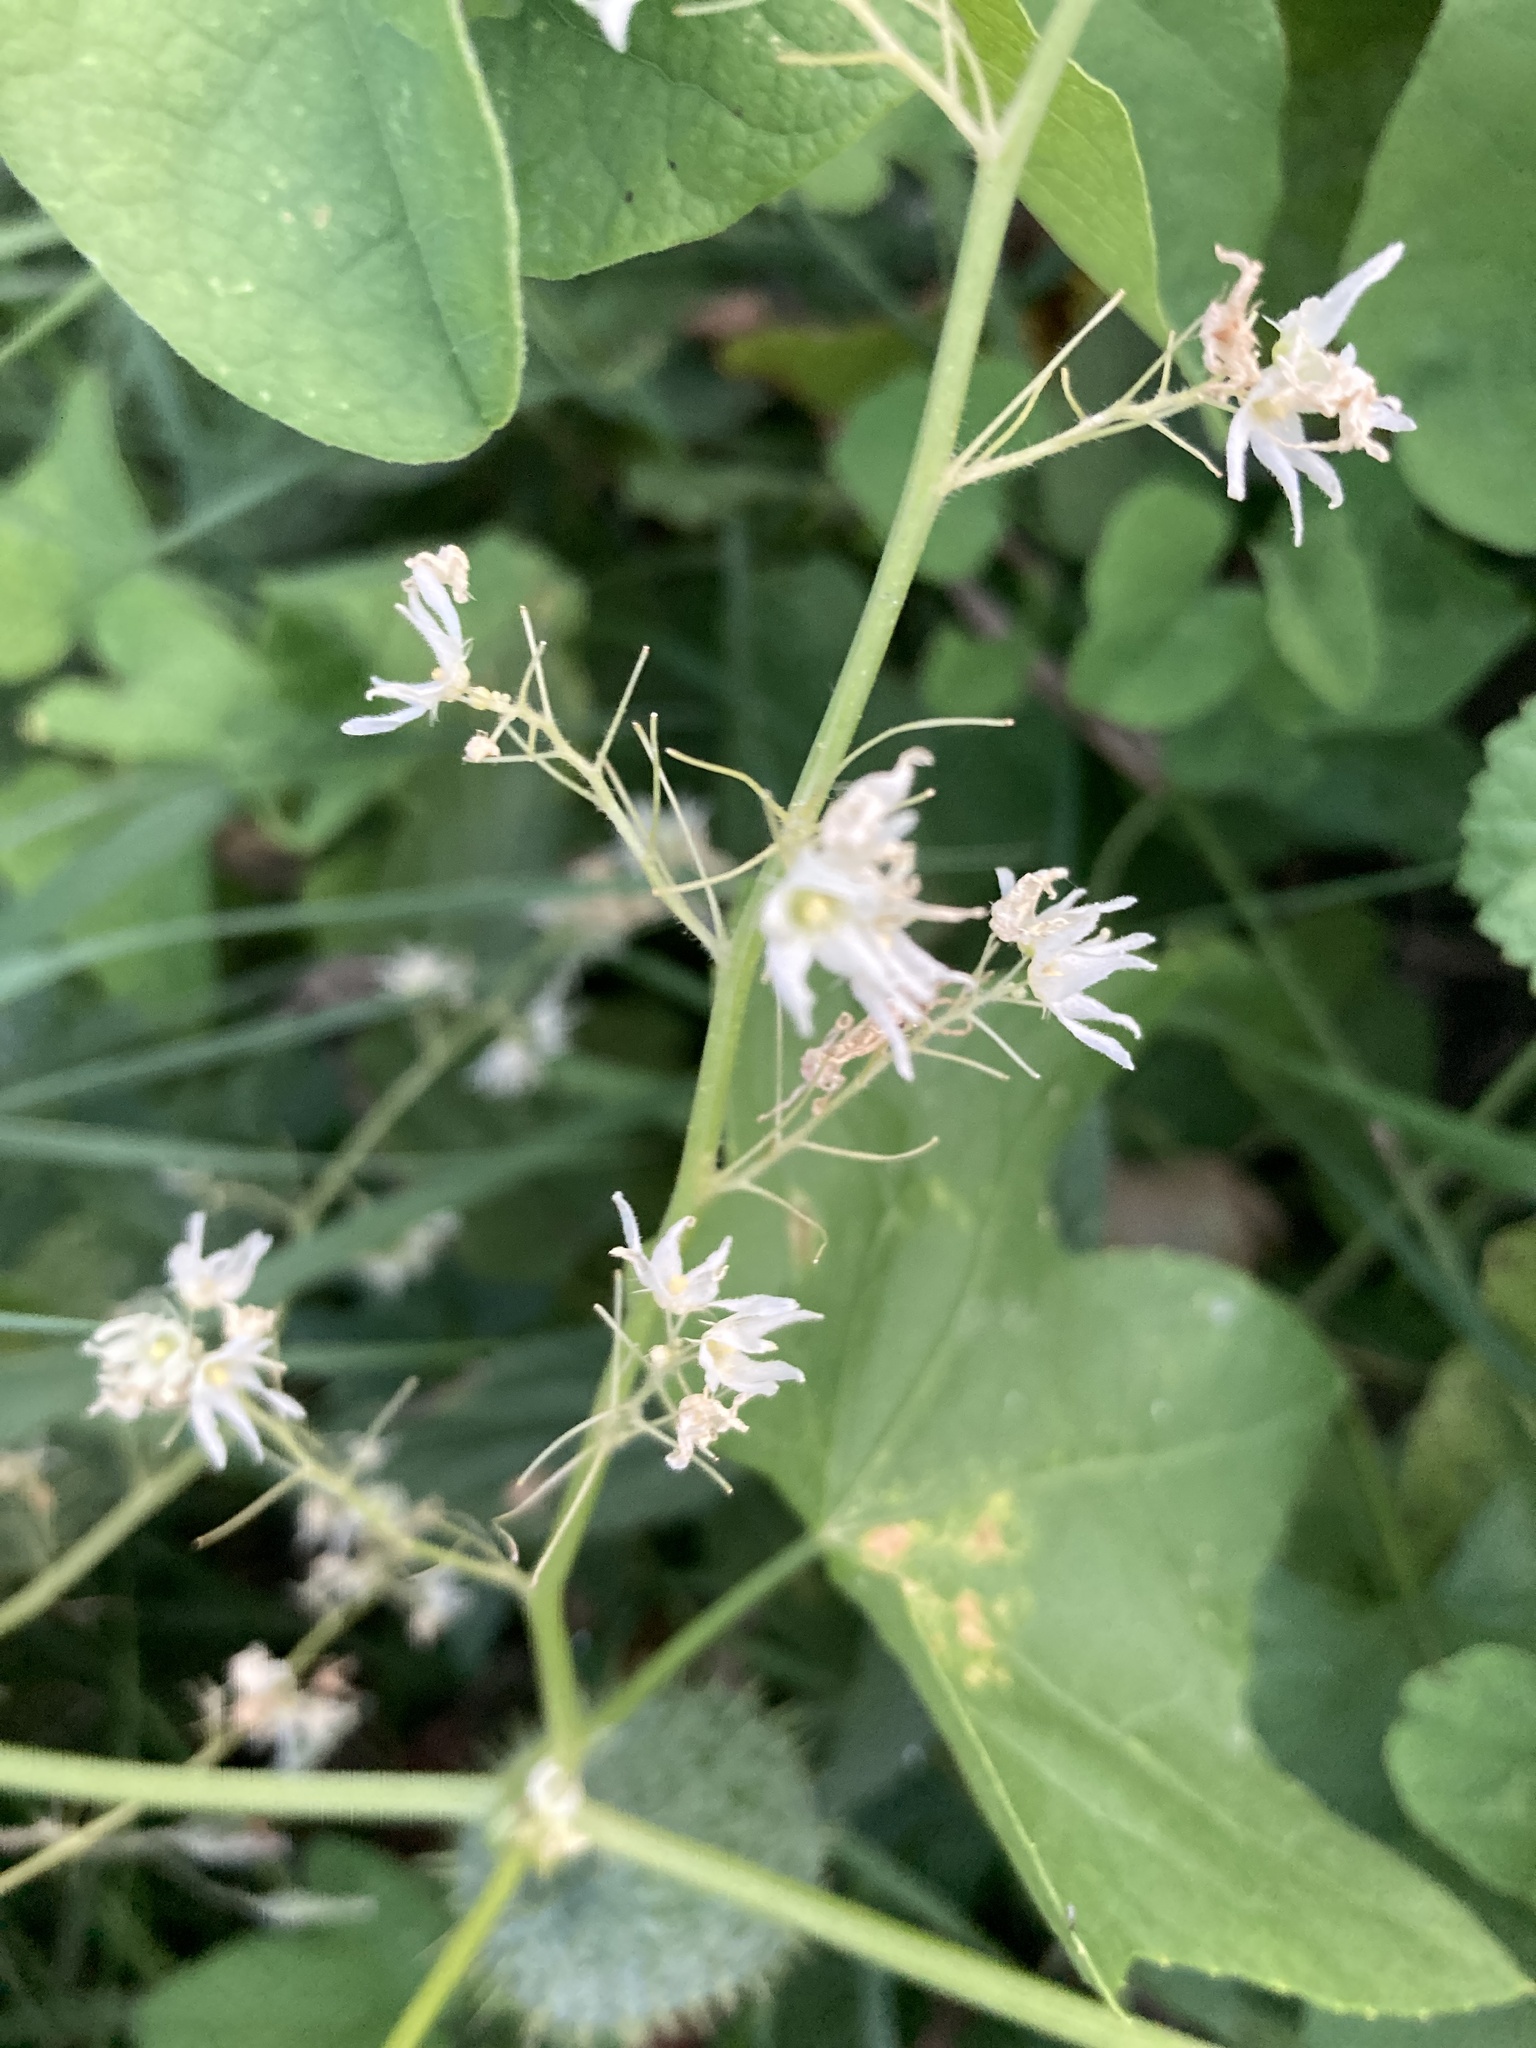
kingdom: Plantae
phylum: Tracheophyta
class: Magnoliopsida
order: Cucurbitales
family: Cucurbitaceae
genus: Echinocystis
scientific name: Echinocystis lobata
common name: Wild cucumber
